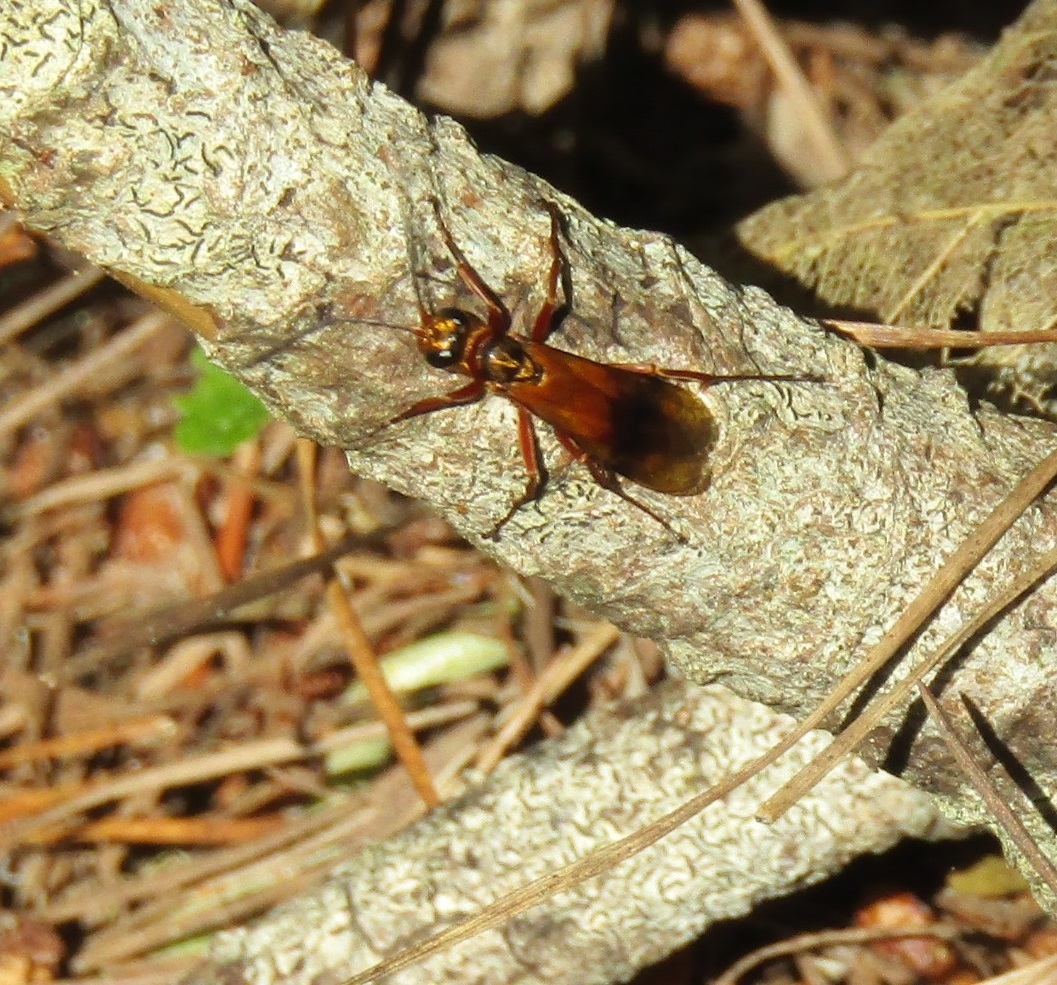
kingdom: Animalia
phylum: Arthropoda
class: Insecta
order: Hymenoptera
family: Pompilidae
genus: Sphictostethus
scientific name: Sphictostethus fugax
